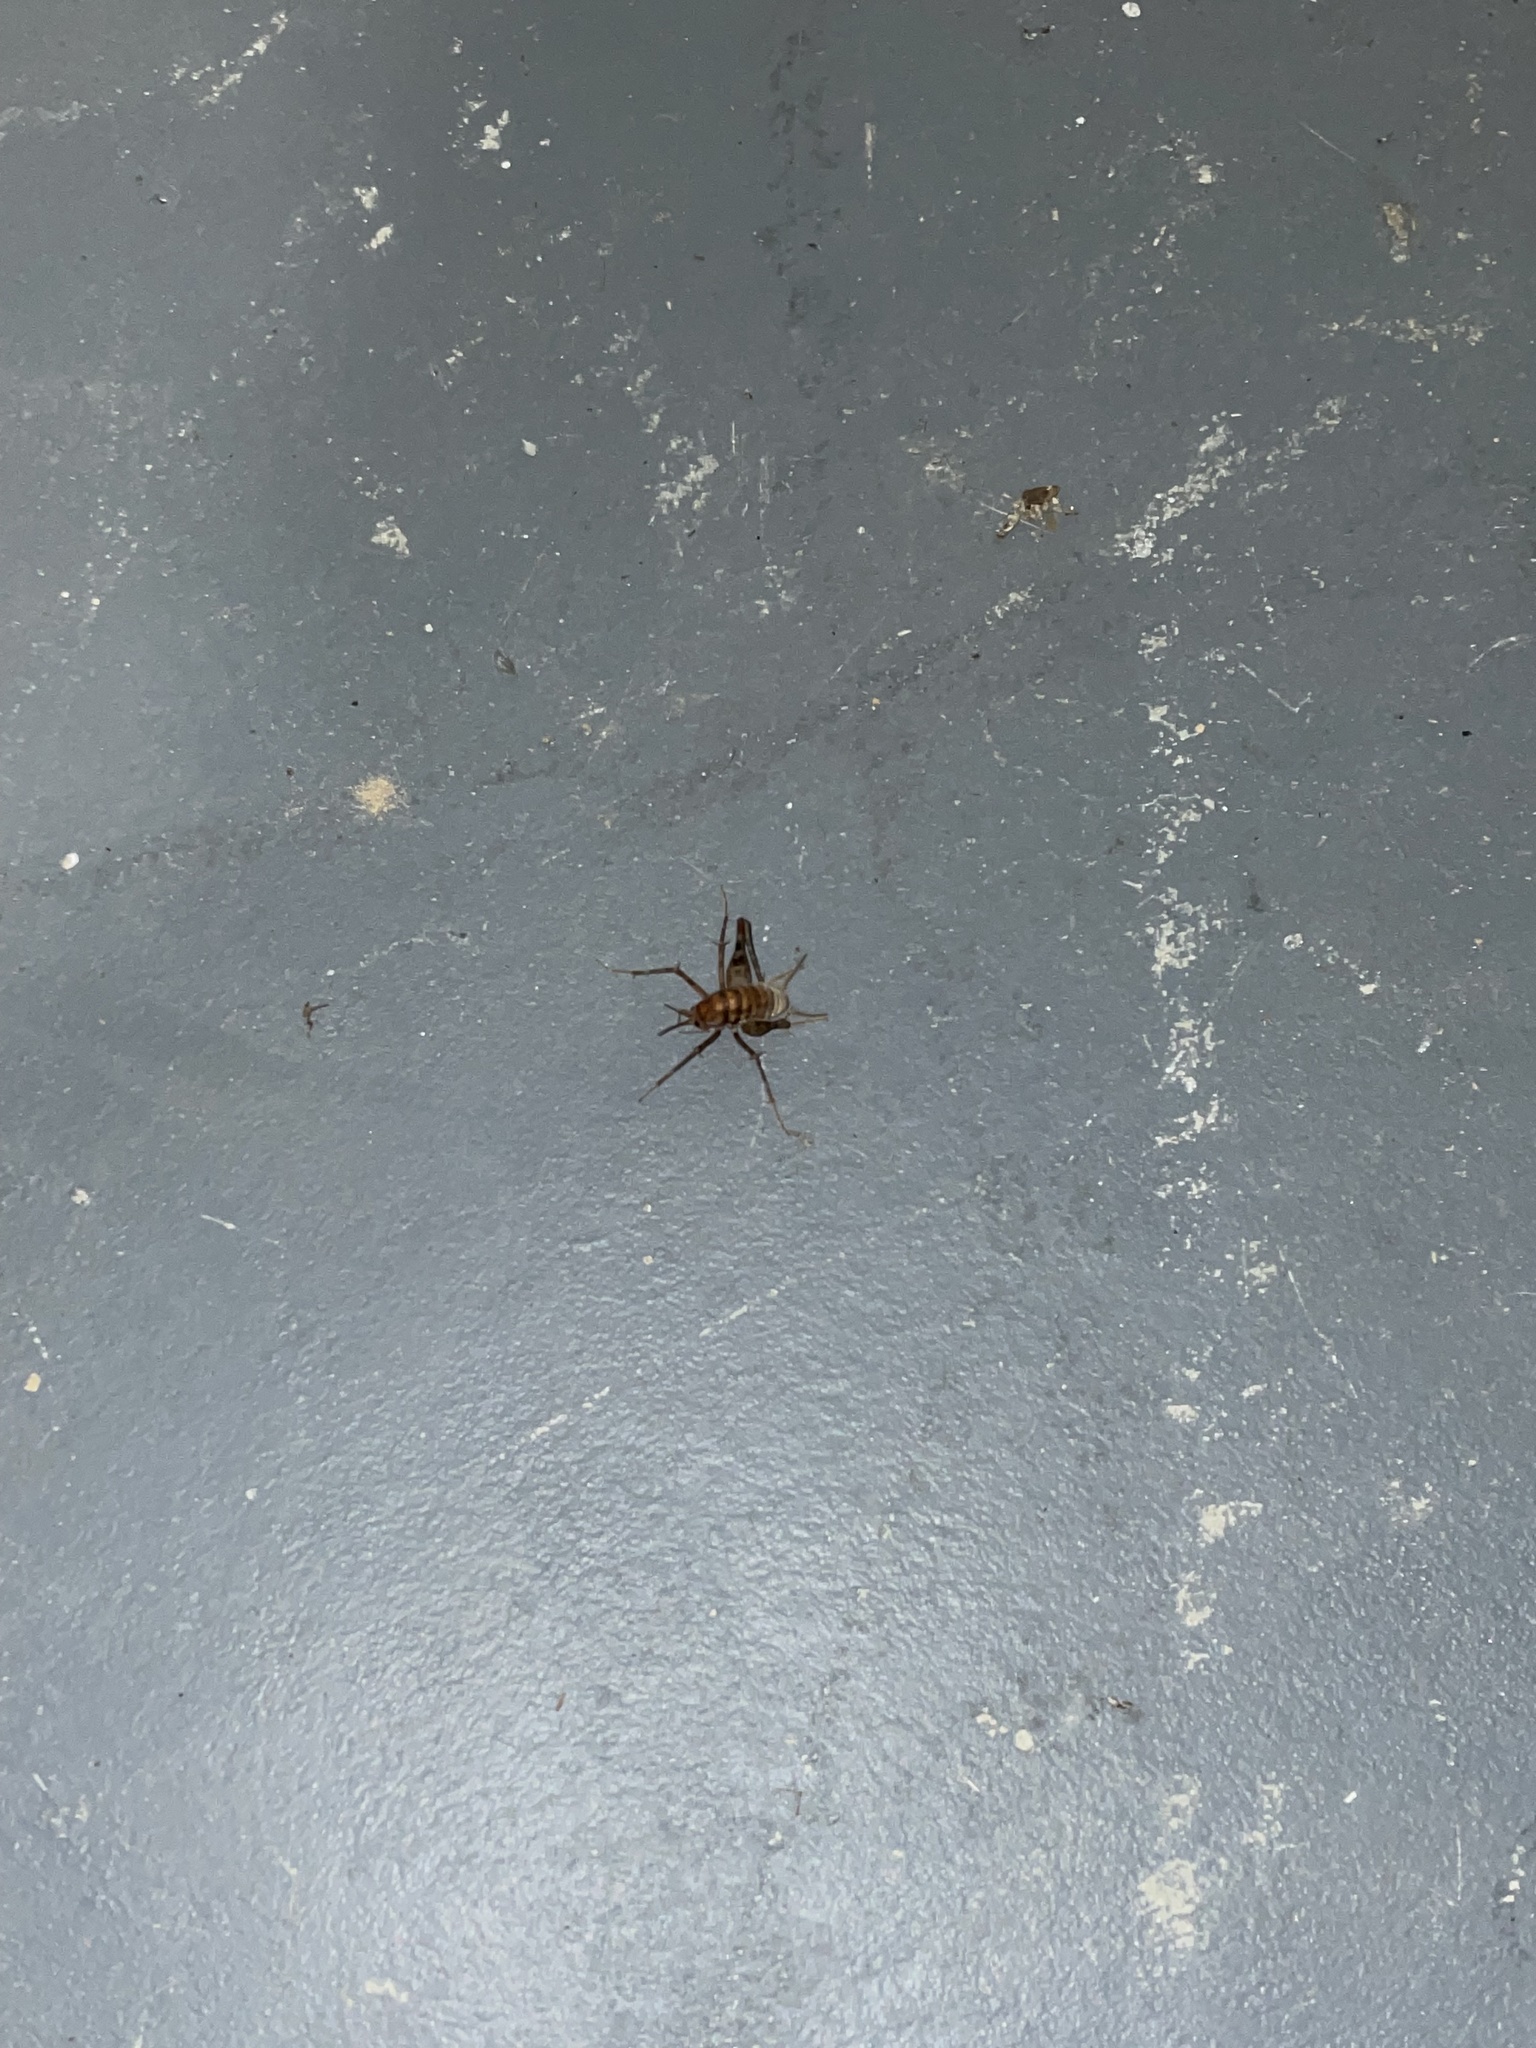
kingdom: Animalia
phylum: Arthropoda
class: Insecta
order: Orthoptera
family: Rhaphidophoridae
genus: Tachycines
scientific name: Tachycines asynamorus
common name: Greenhouse camel cricket
